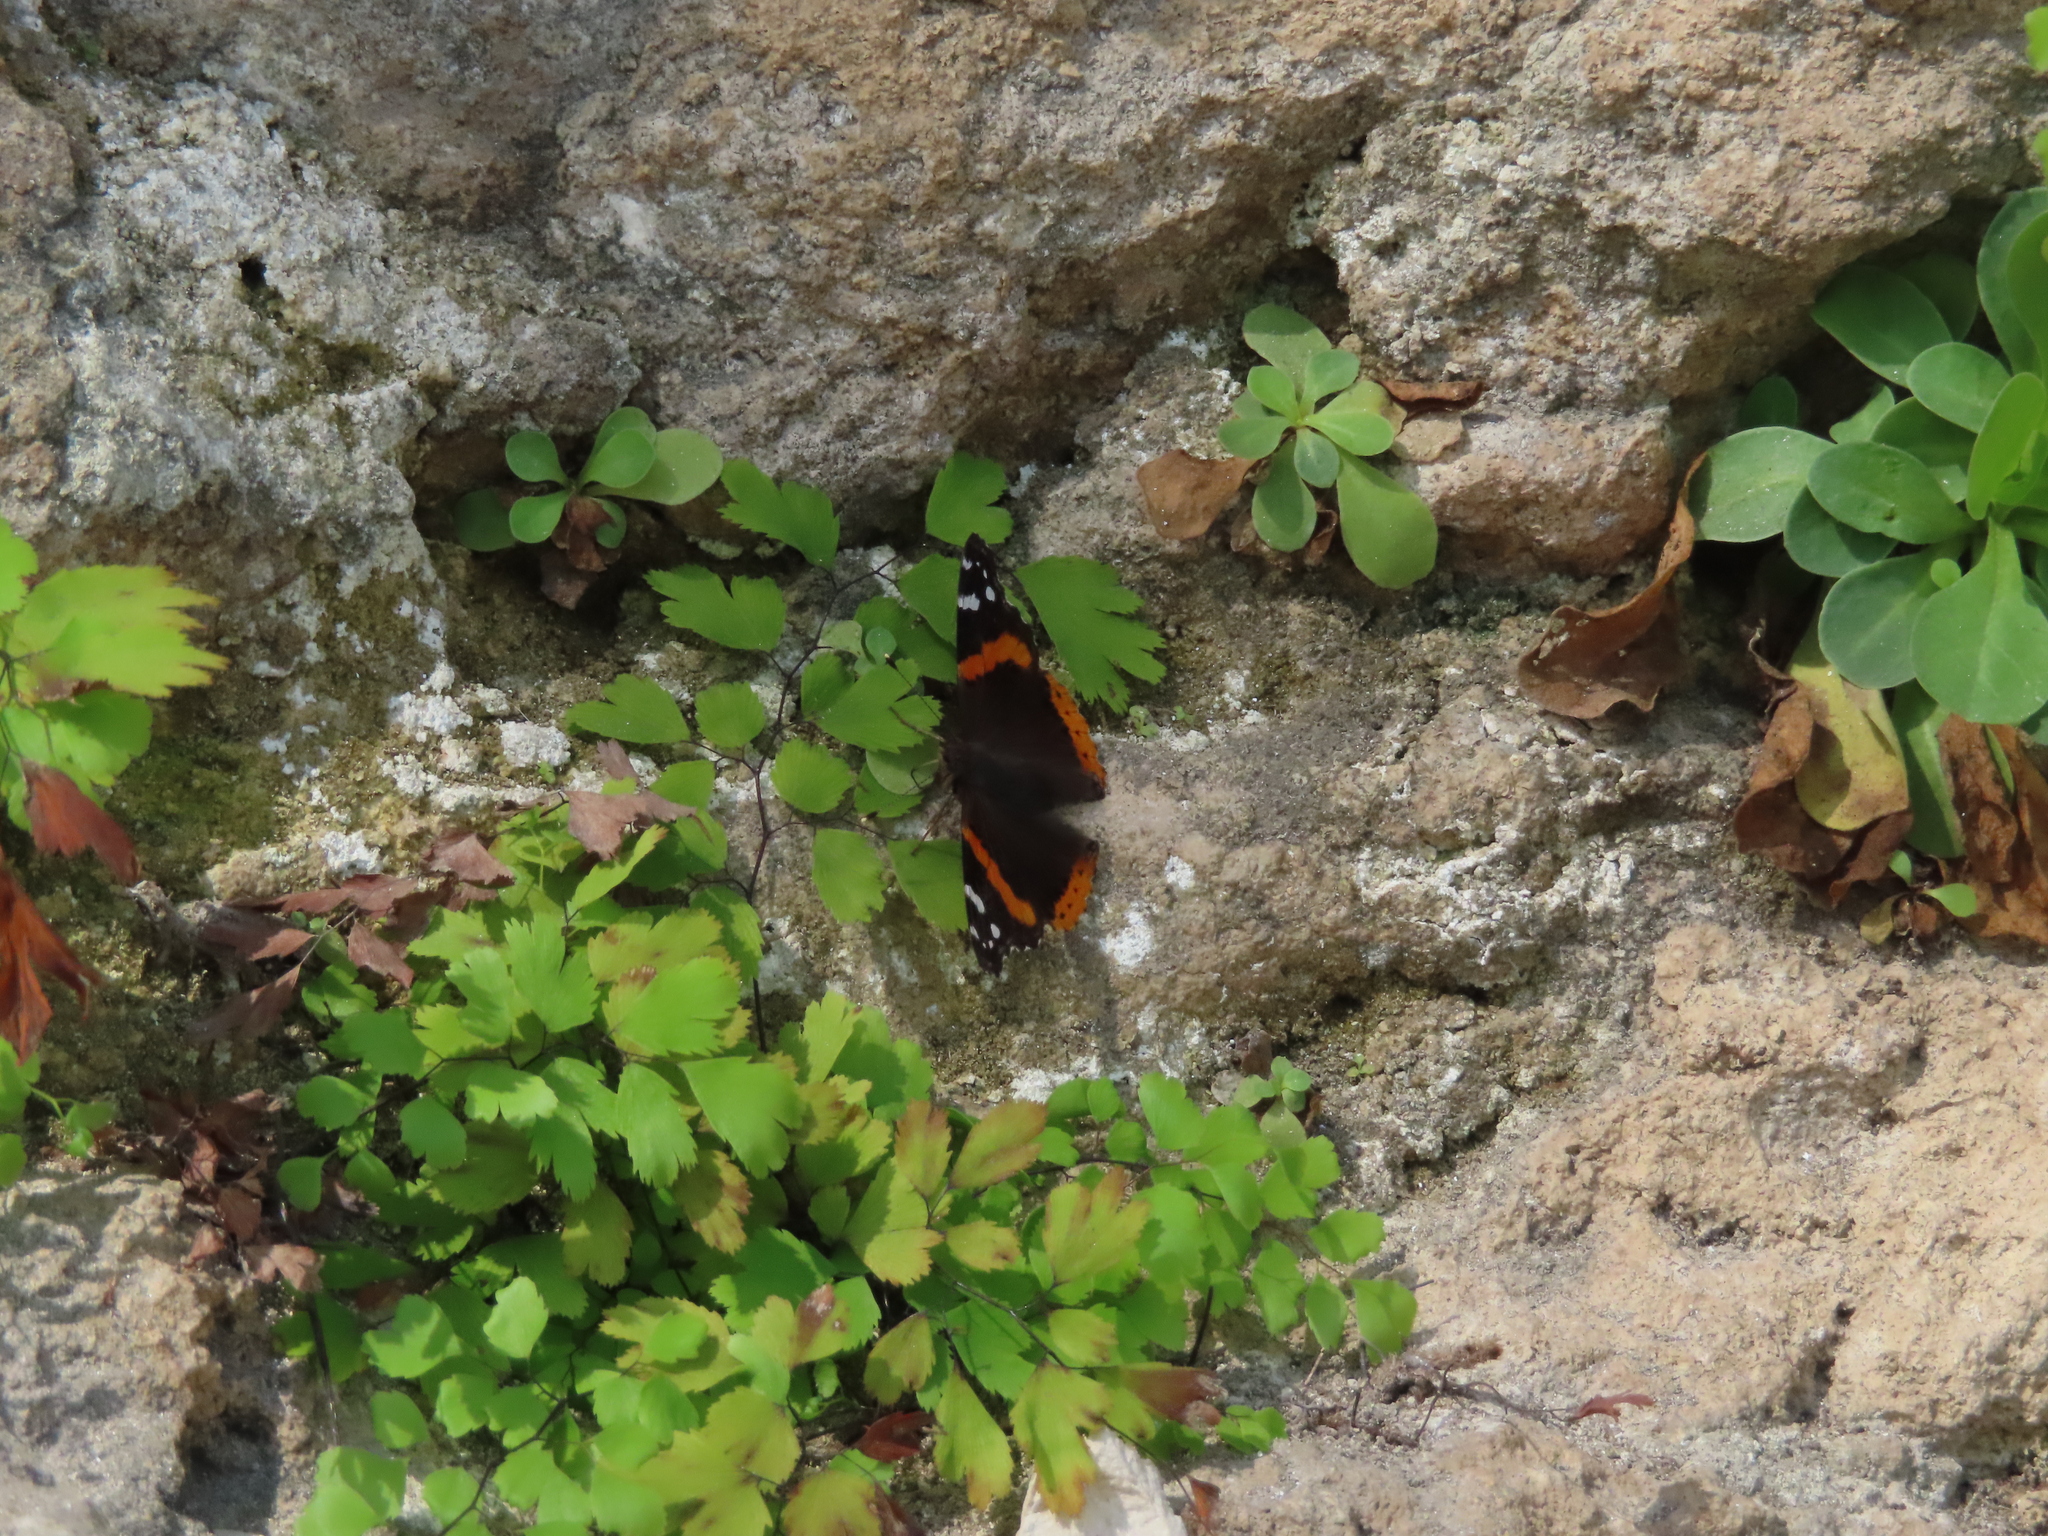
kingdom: Animalia
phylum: Arthropoda
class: Insecta
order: Lepidoptera
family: Nymphalidae
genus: Vanessa
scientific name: Vanessa atalanta
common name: Red admiral
